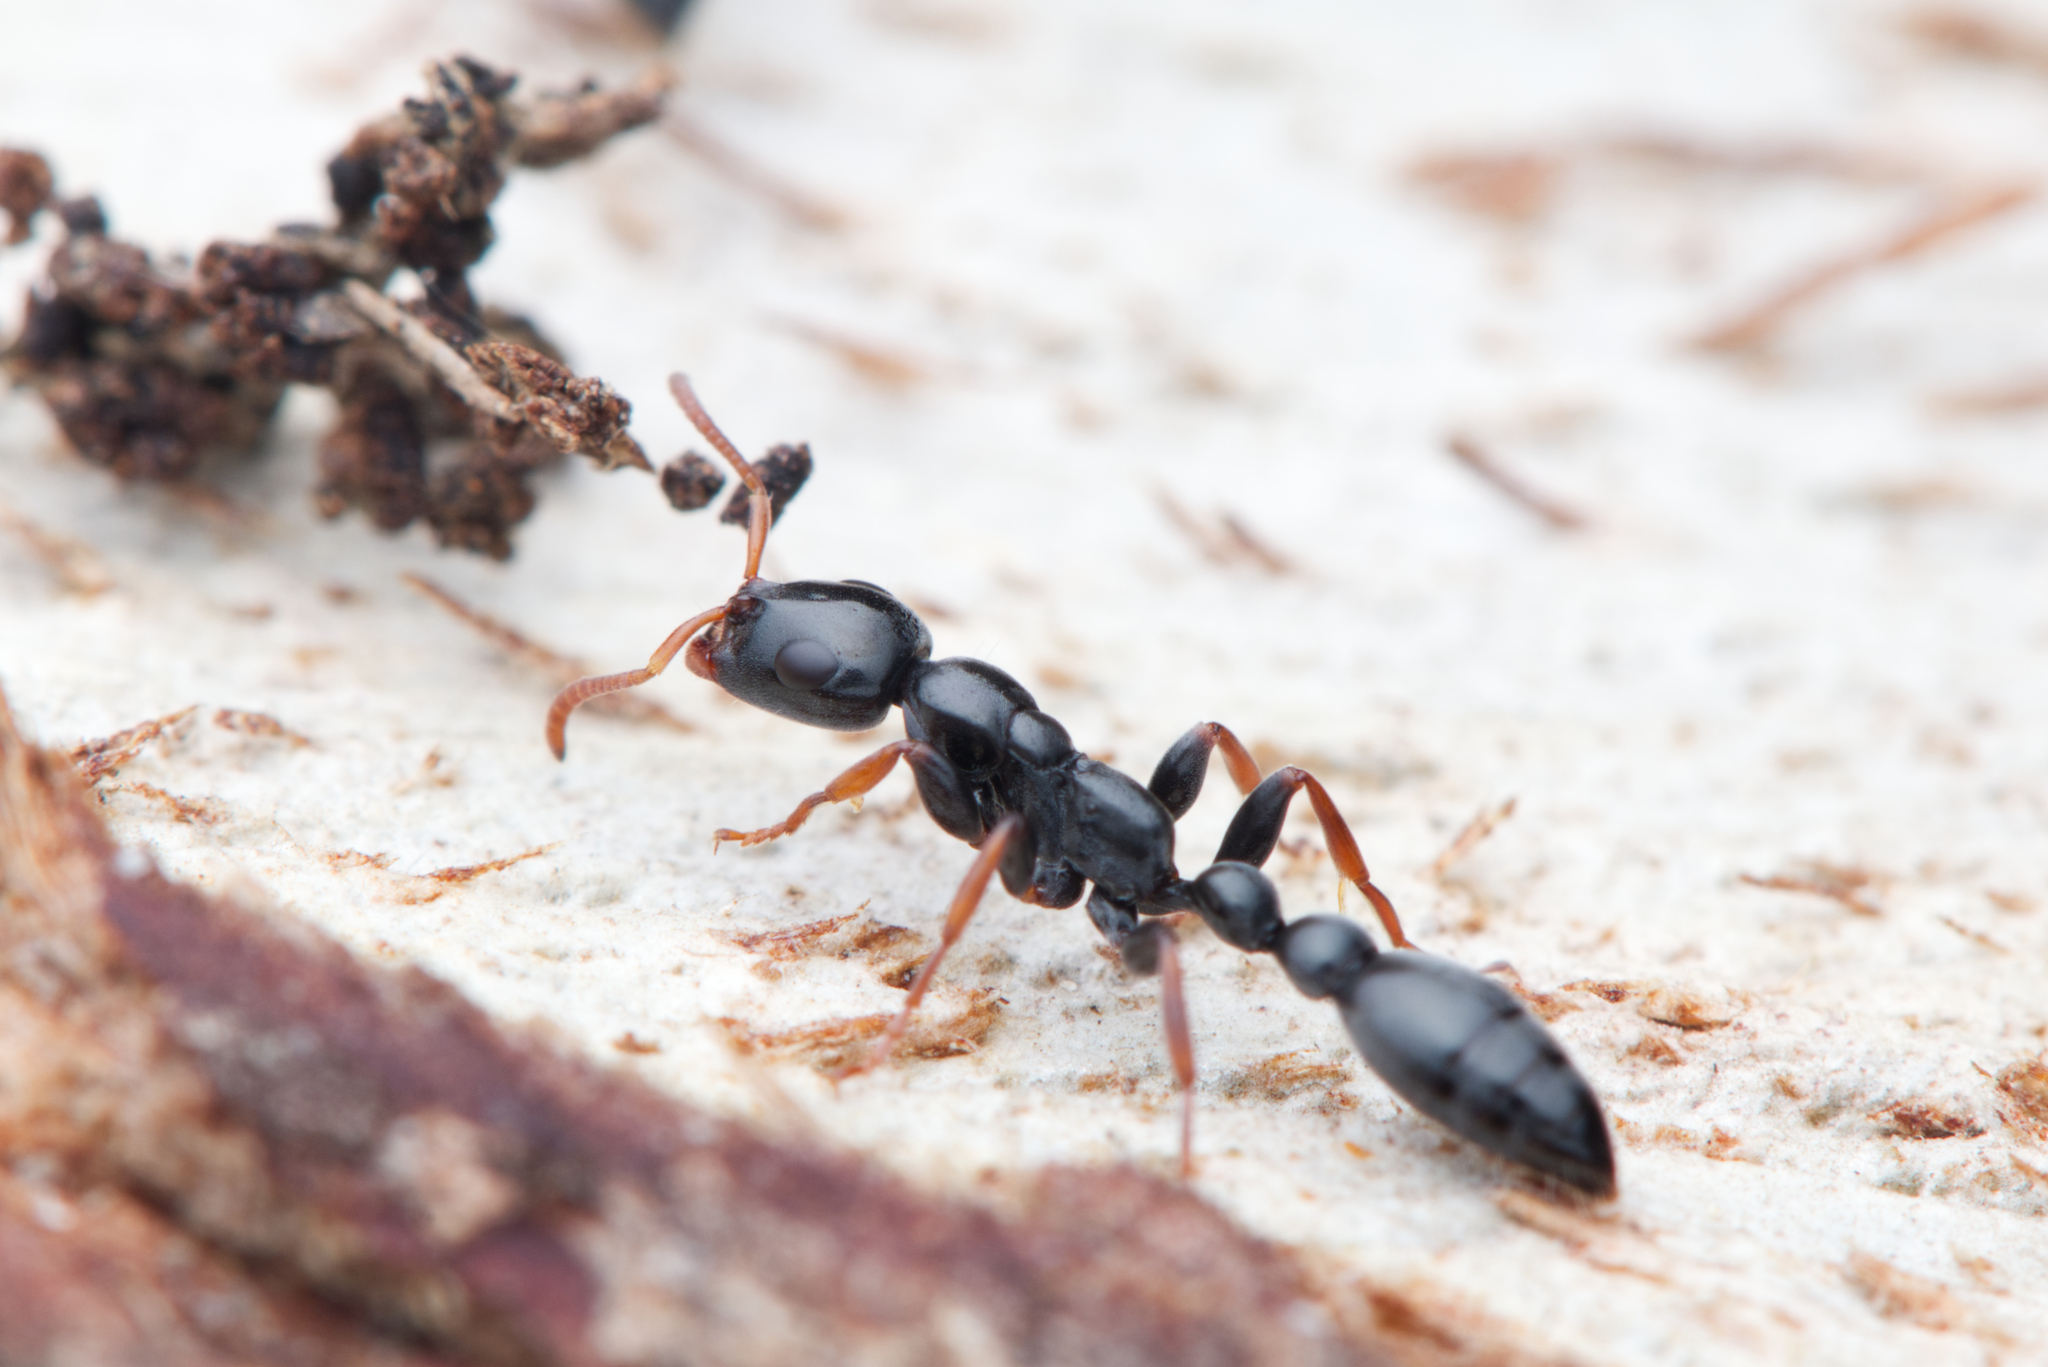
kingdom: Animalia
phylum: Arthropoda
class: Insecta
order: Hymenoptera
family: Formicidae
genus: Tetraponera
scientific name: Tetraponera punctulata
